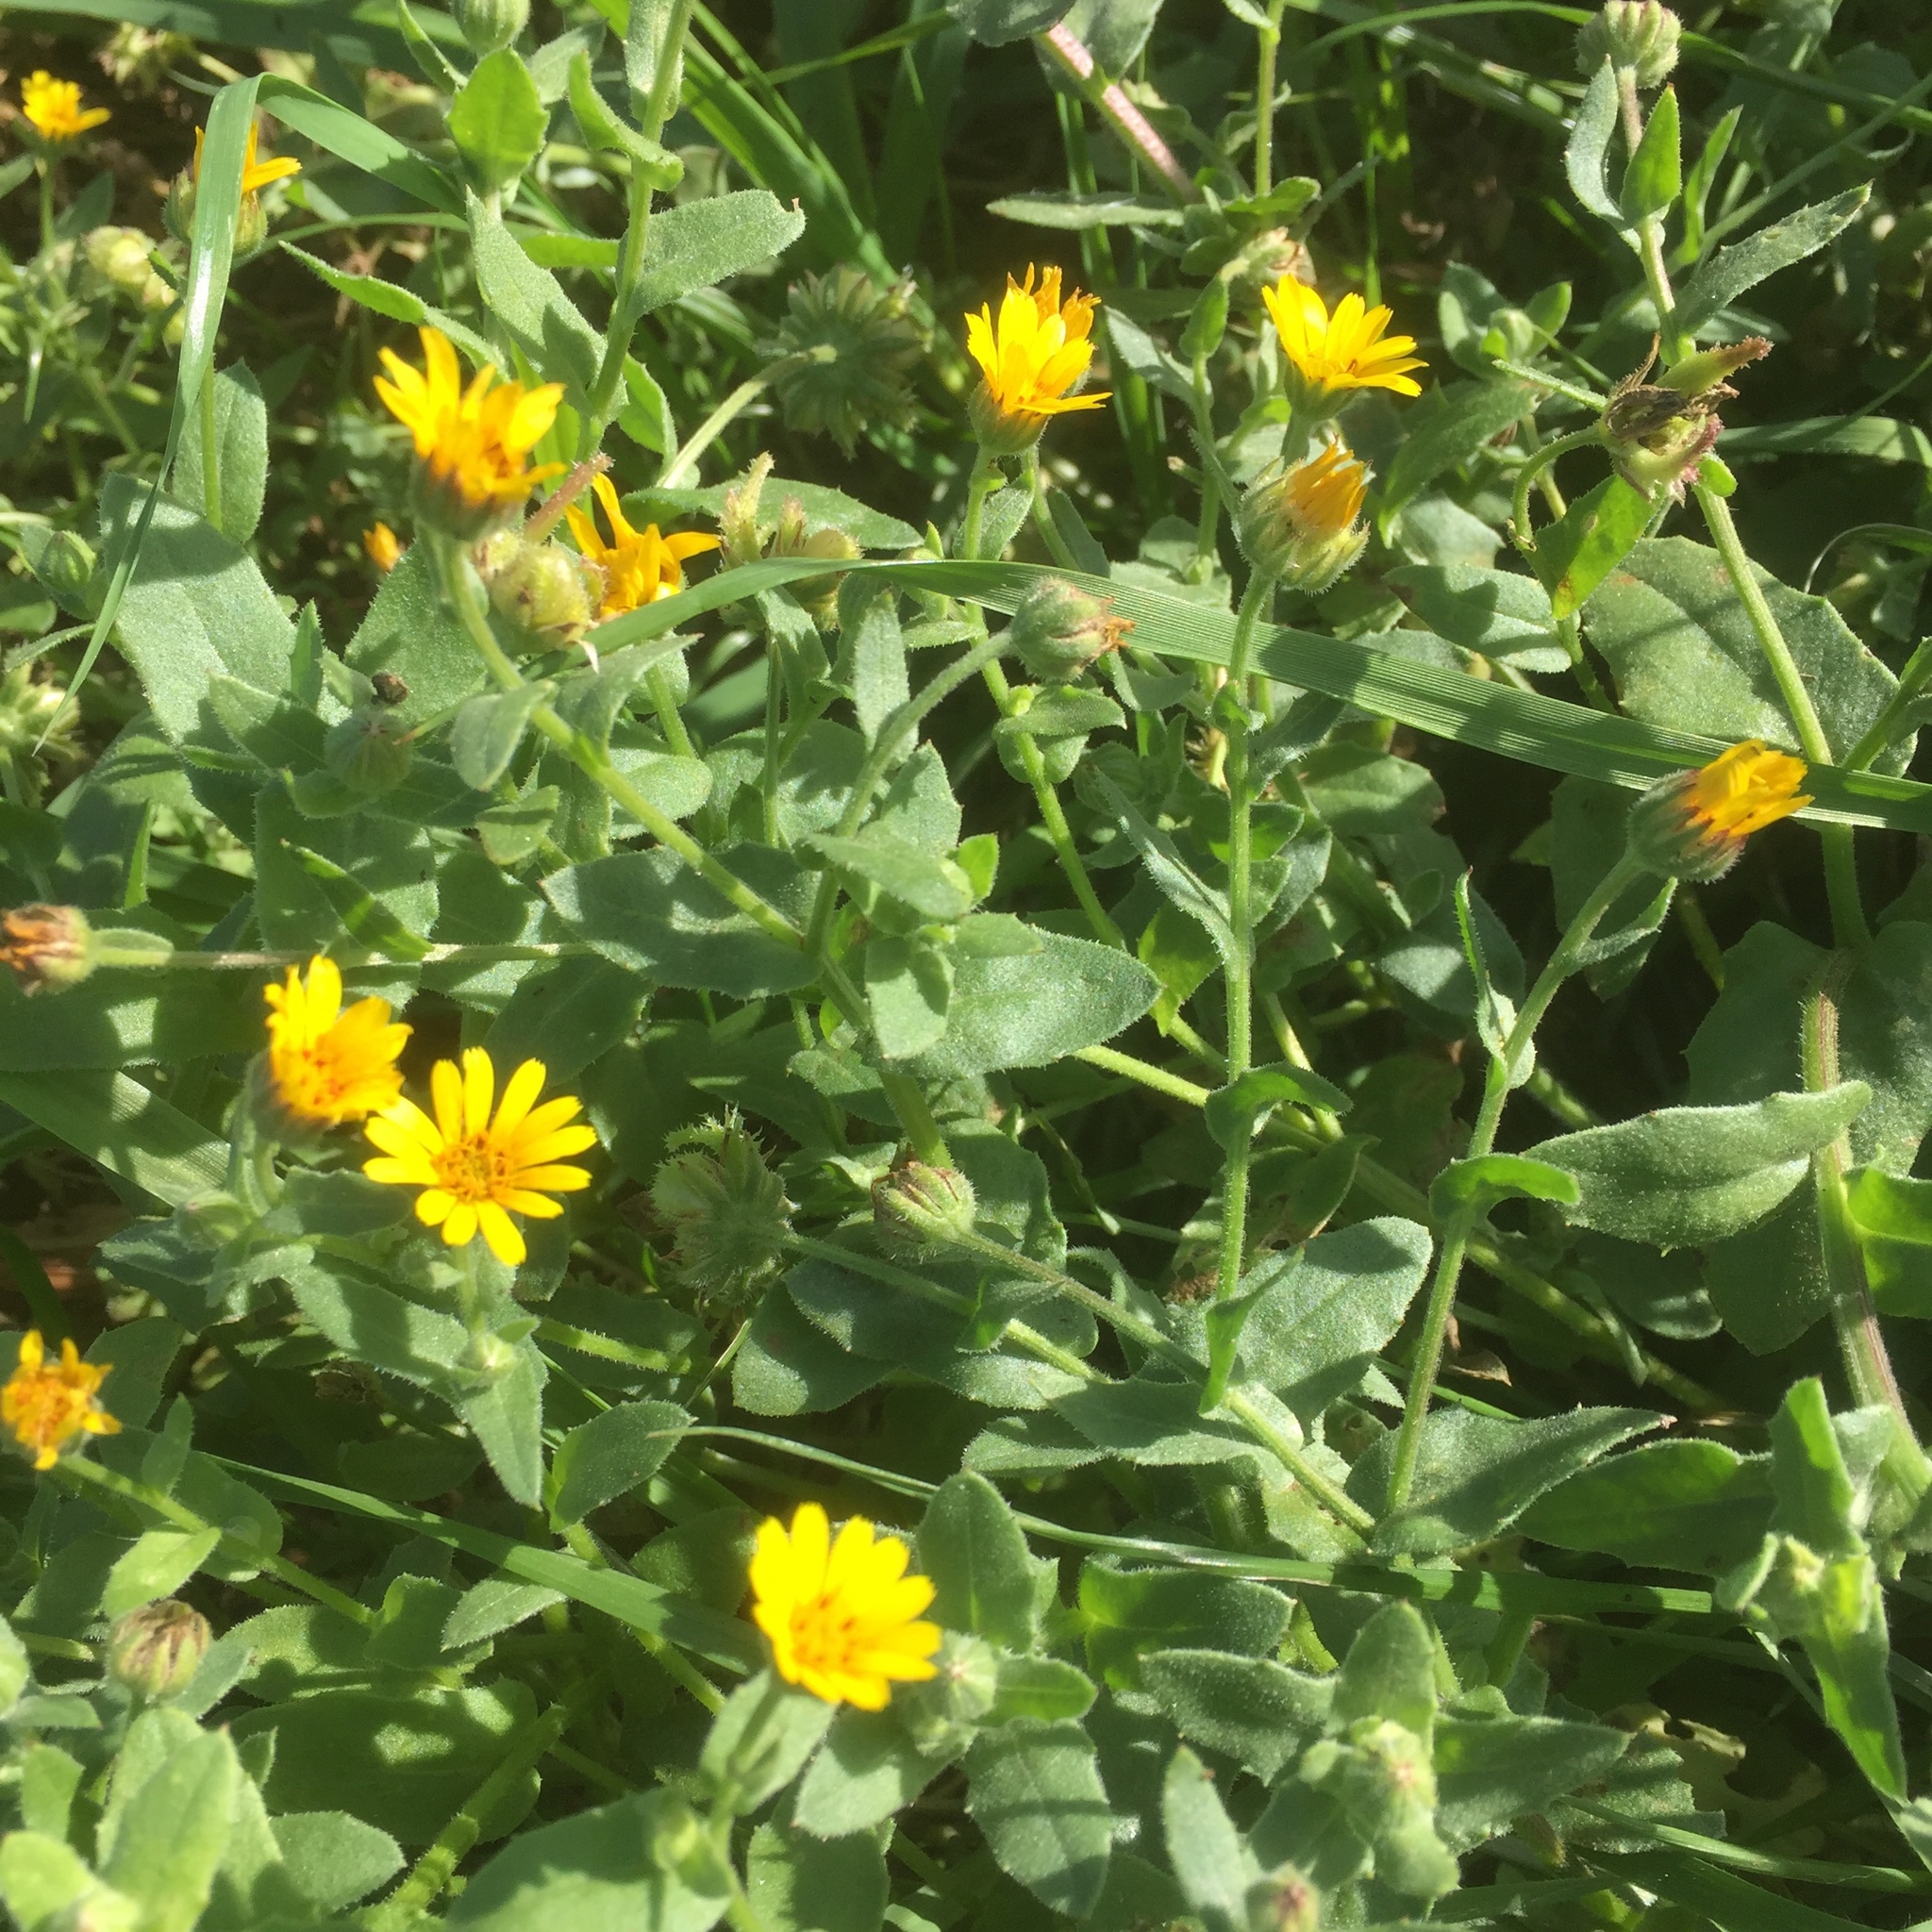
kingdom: Plantae
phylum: Tracheophyta
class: Magnoliopsida
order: Asterales
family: Asteraceae
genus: Calendula
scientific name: Calendula arvensis
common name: Field marigold
